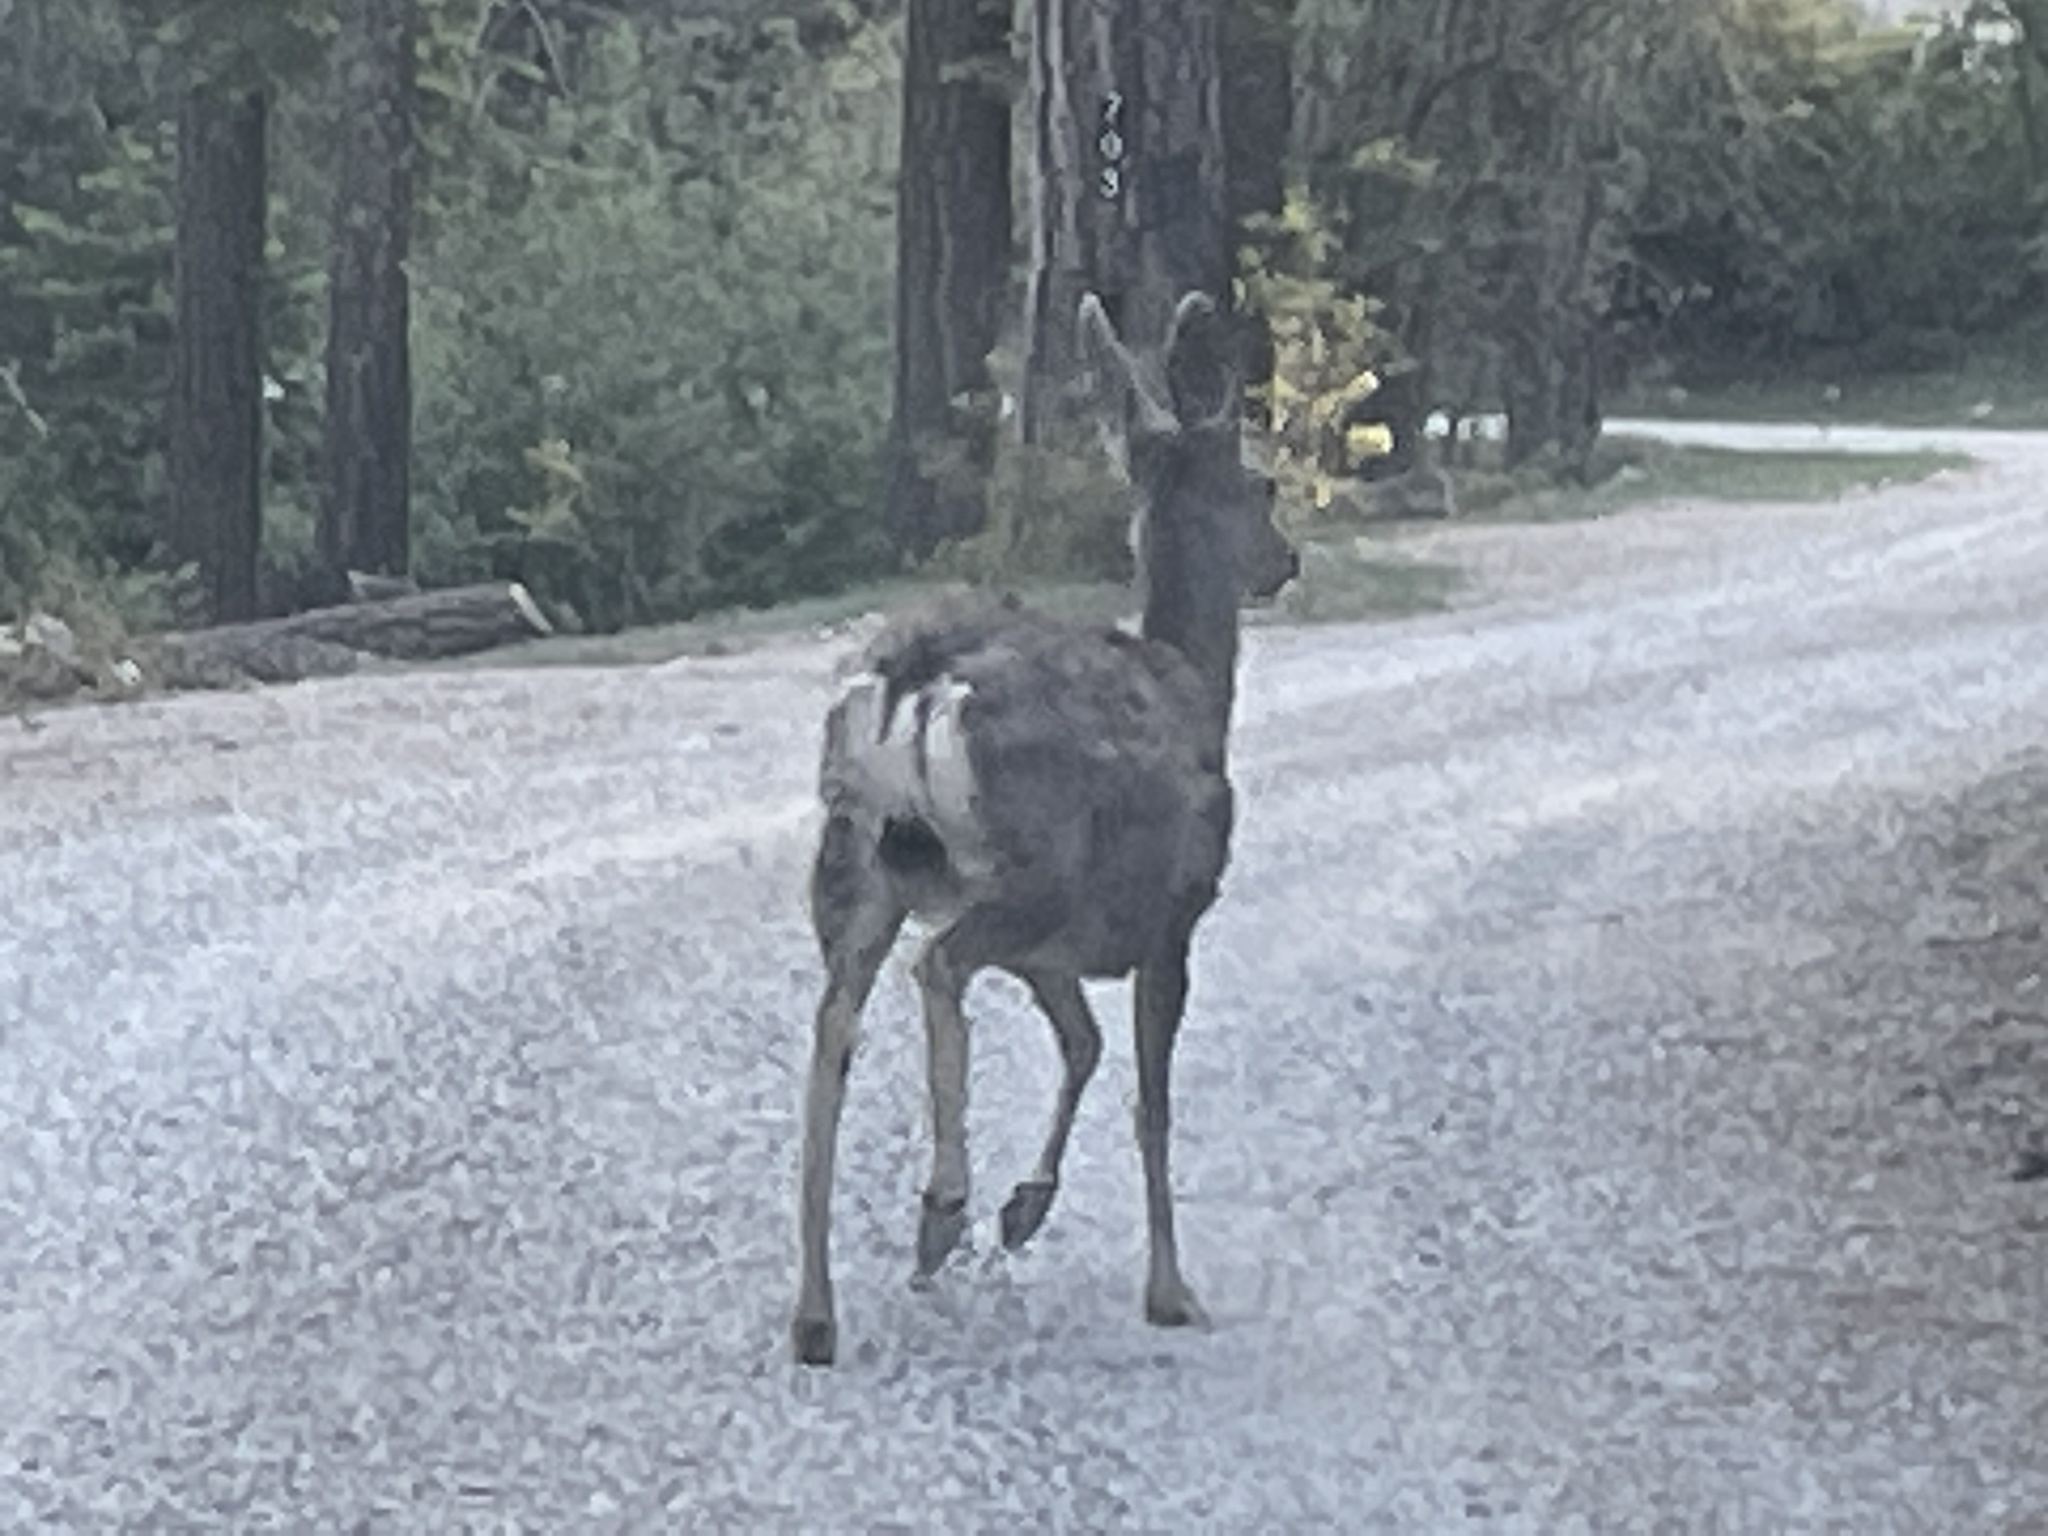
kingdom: Animalia
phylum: Chordata
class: Mammalia
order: Artiodactyla
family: Cervidae
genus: Odocoileus
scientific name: Odocoileus hemionus
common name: Mule deer
